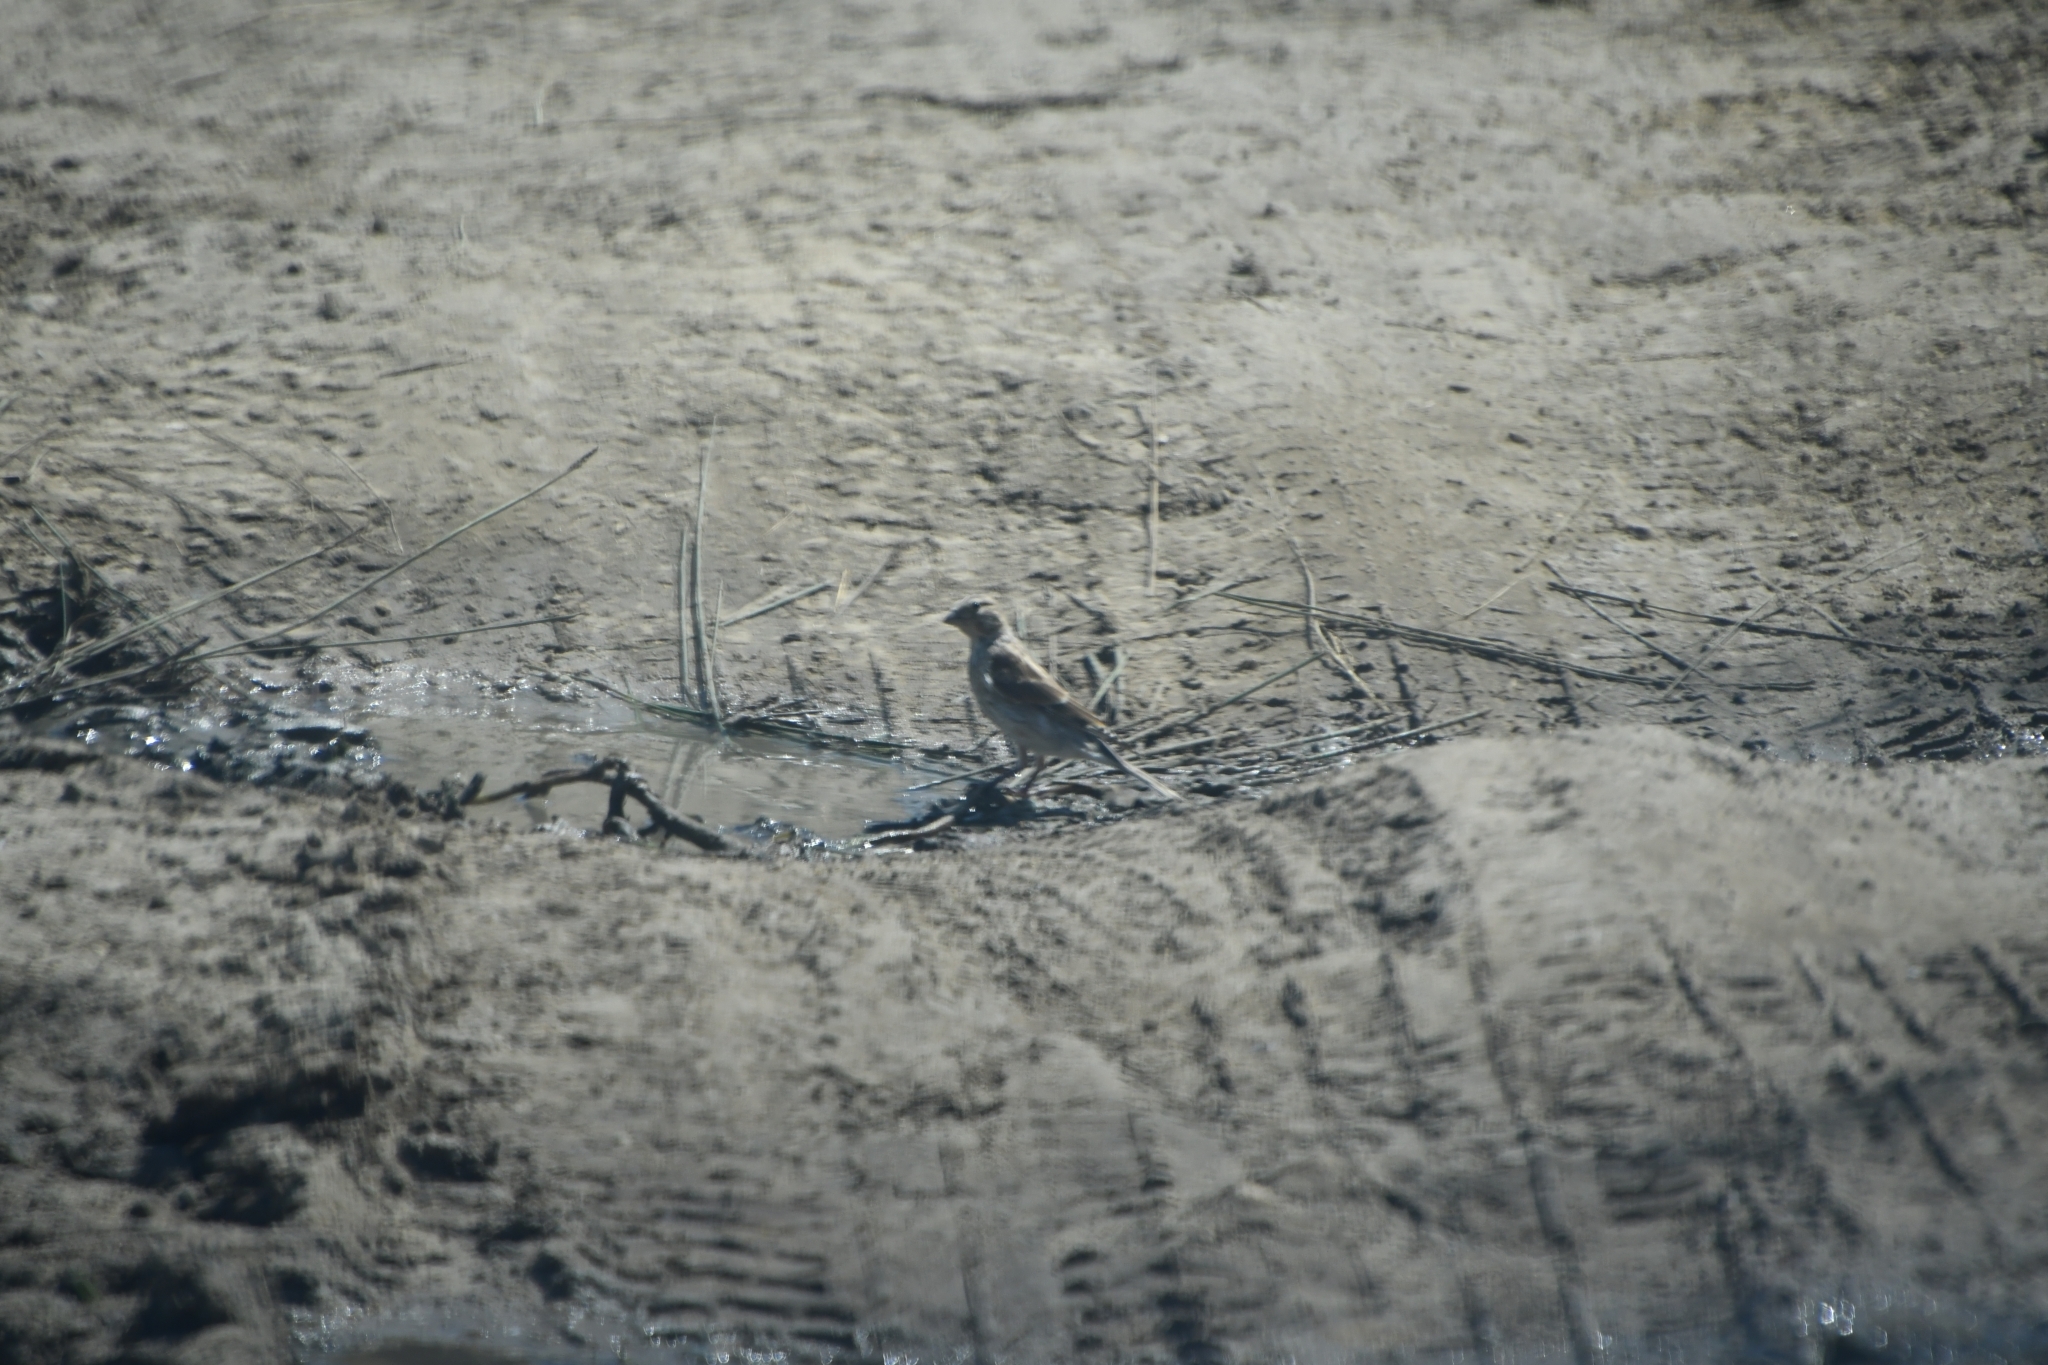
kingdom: Animalia
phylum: Chordata
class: Aves
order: Passeriformes
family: Fringillidae
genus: Linaria
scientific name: Linaria cannabina
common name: Common linnet
